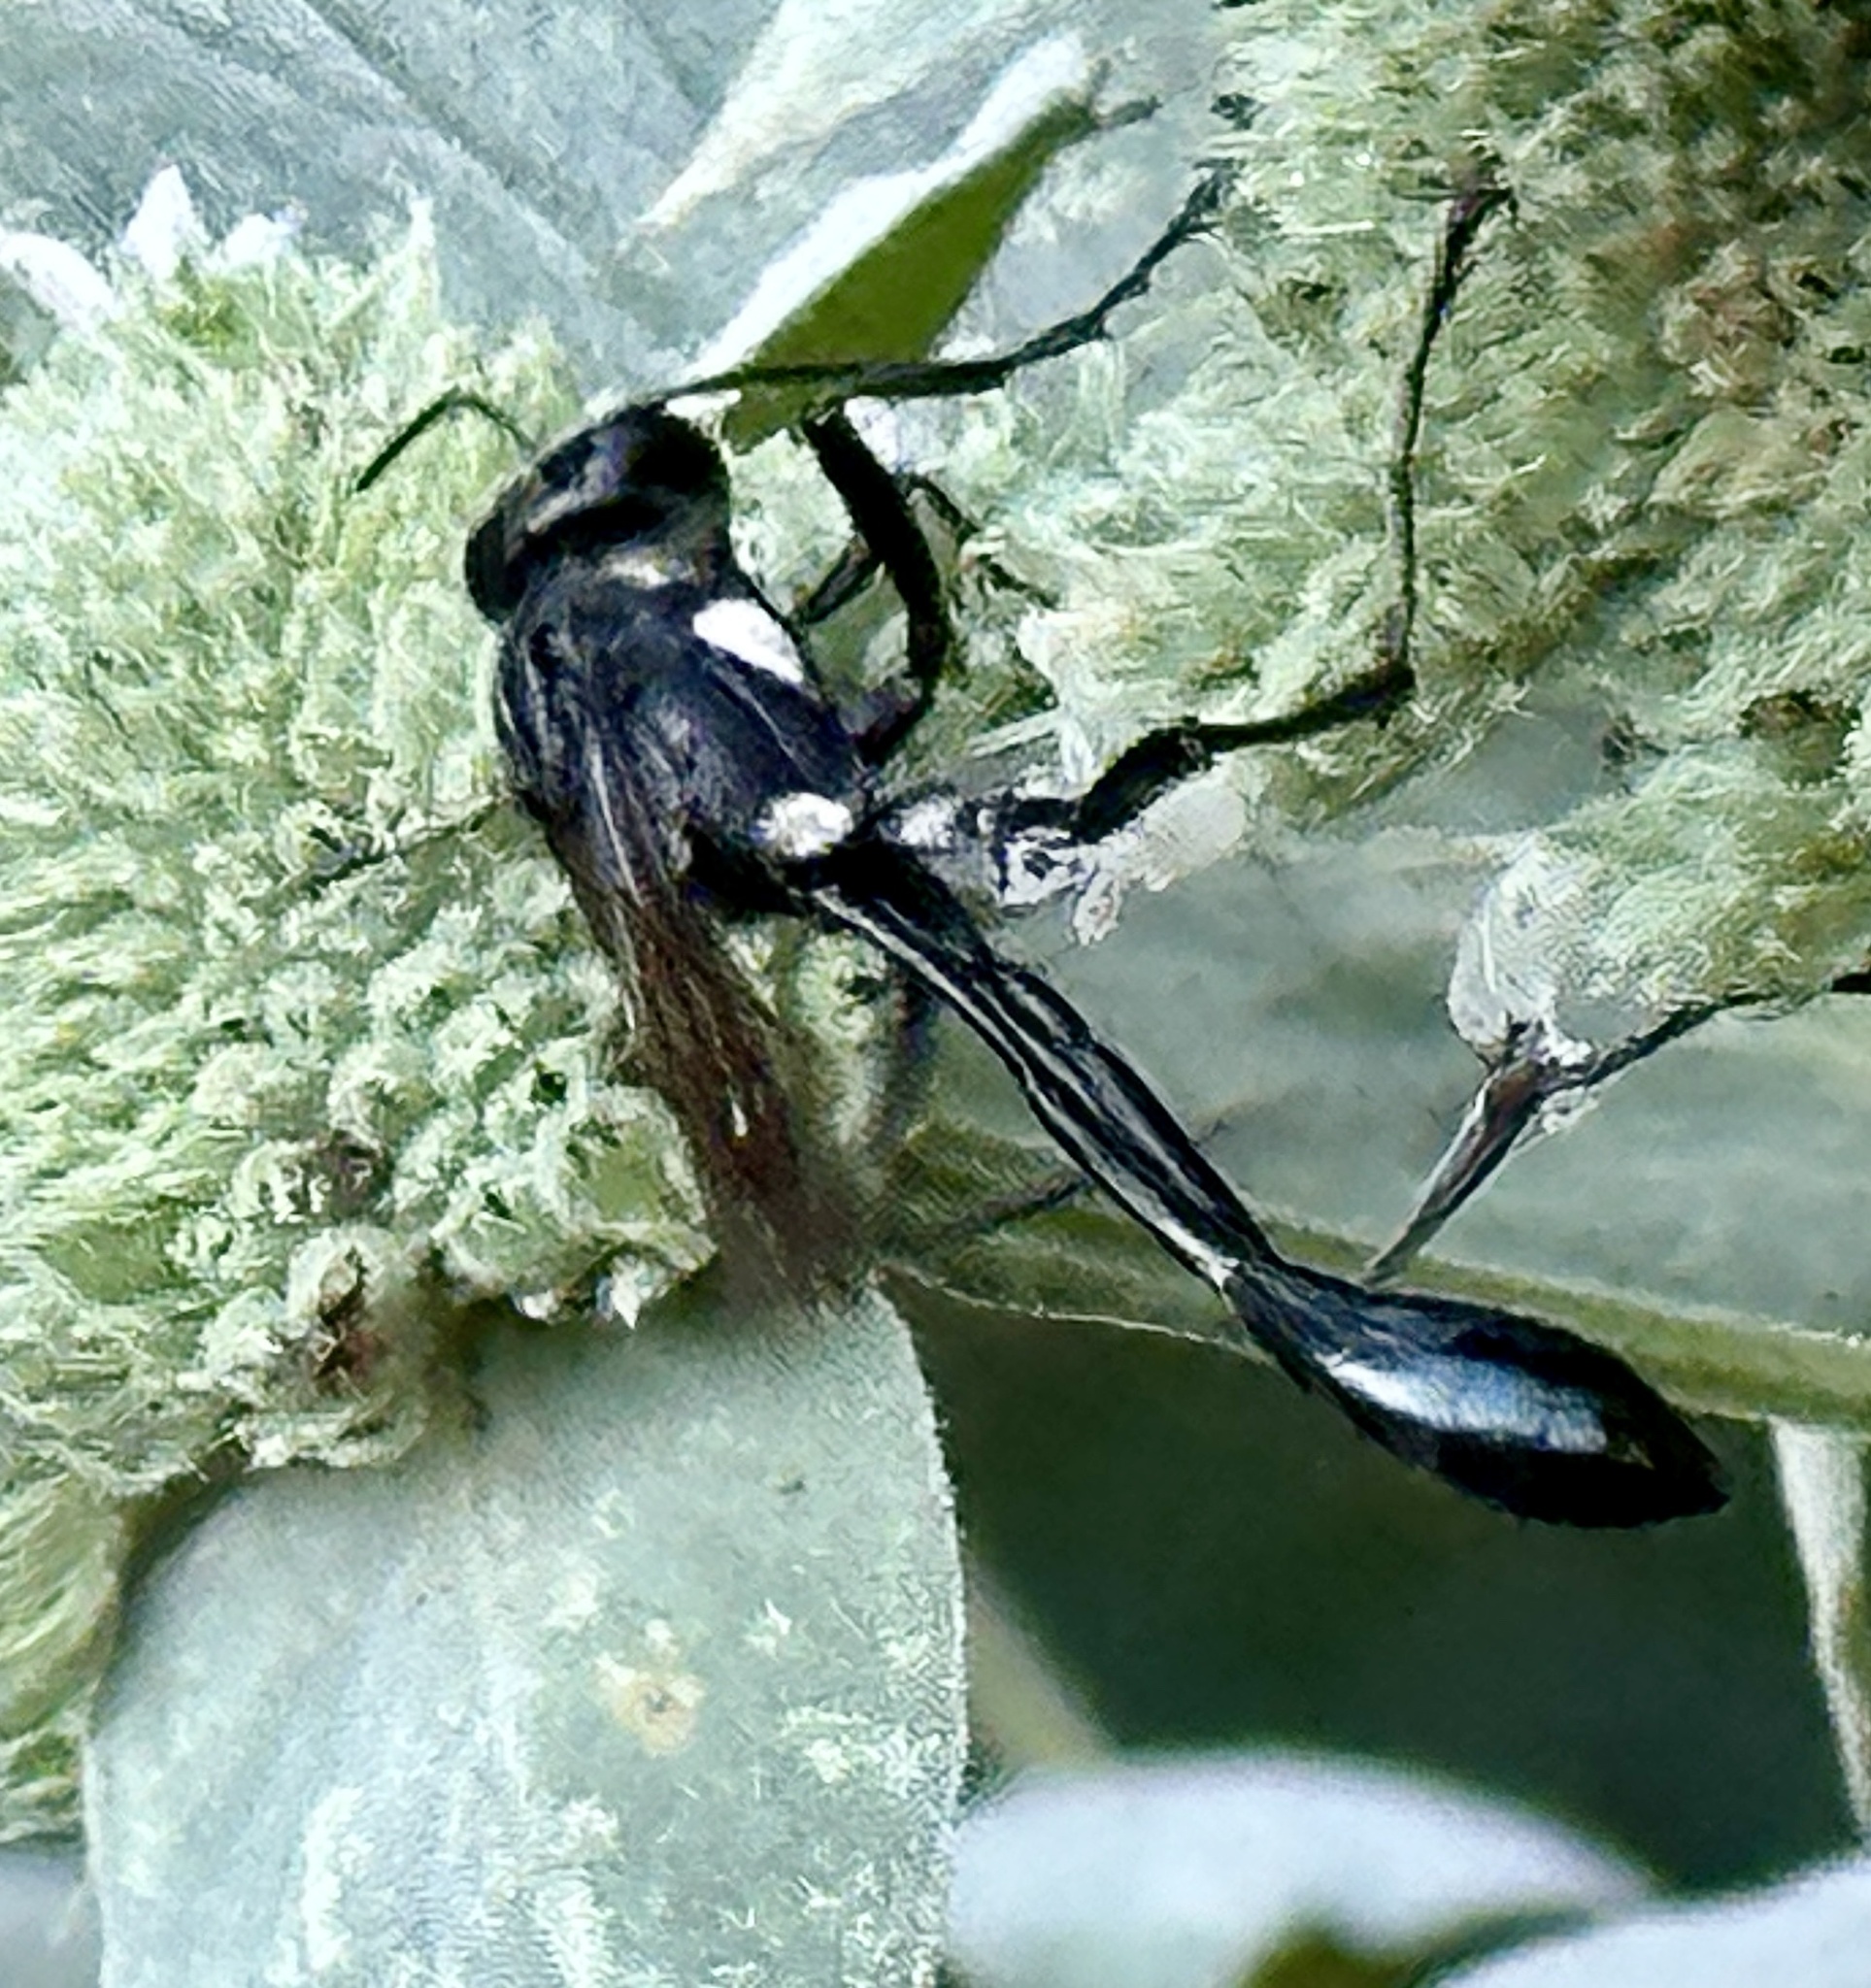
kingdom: Animalia
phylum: Arthropoda
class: Insecta
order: Hymenoptera
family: Sphecidae
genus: Eremnophila
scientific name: Eremnophila aureonotata
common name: Gold-marked thread-waisted wasp
